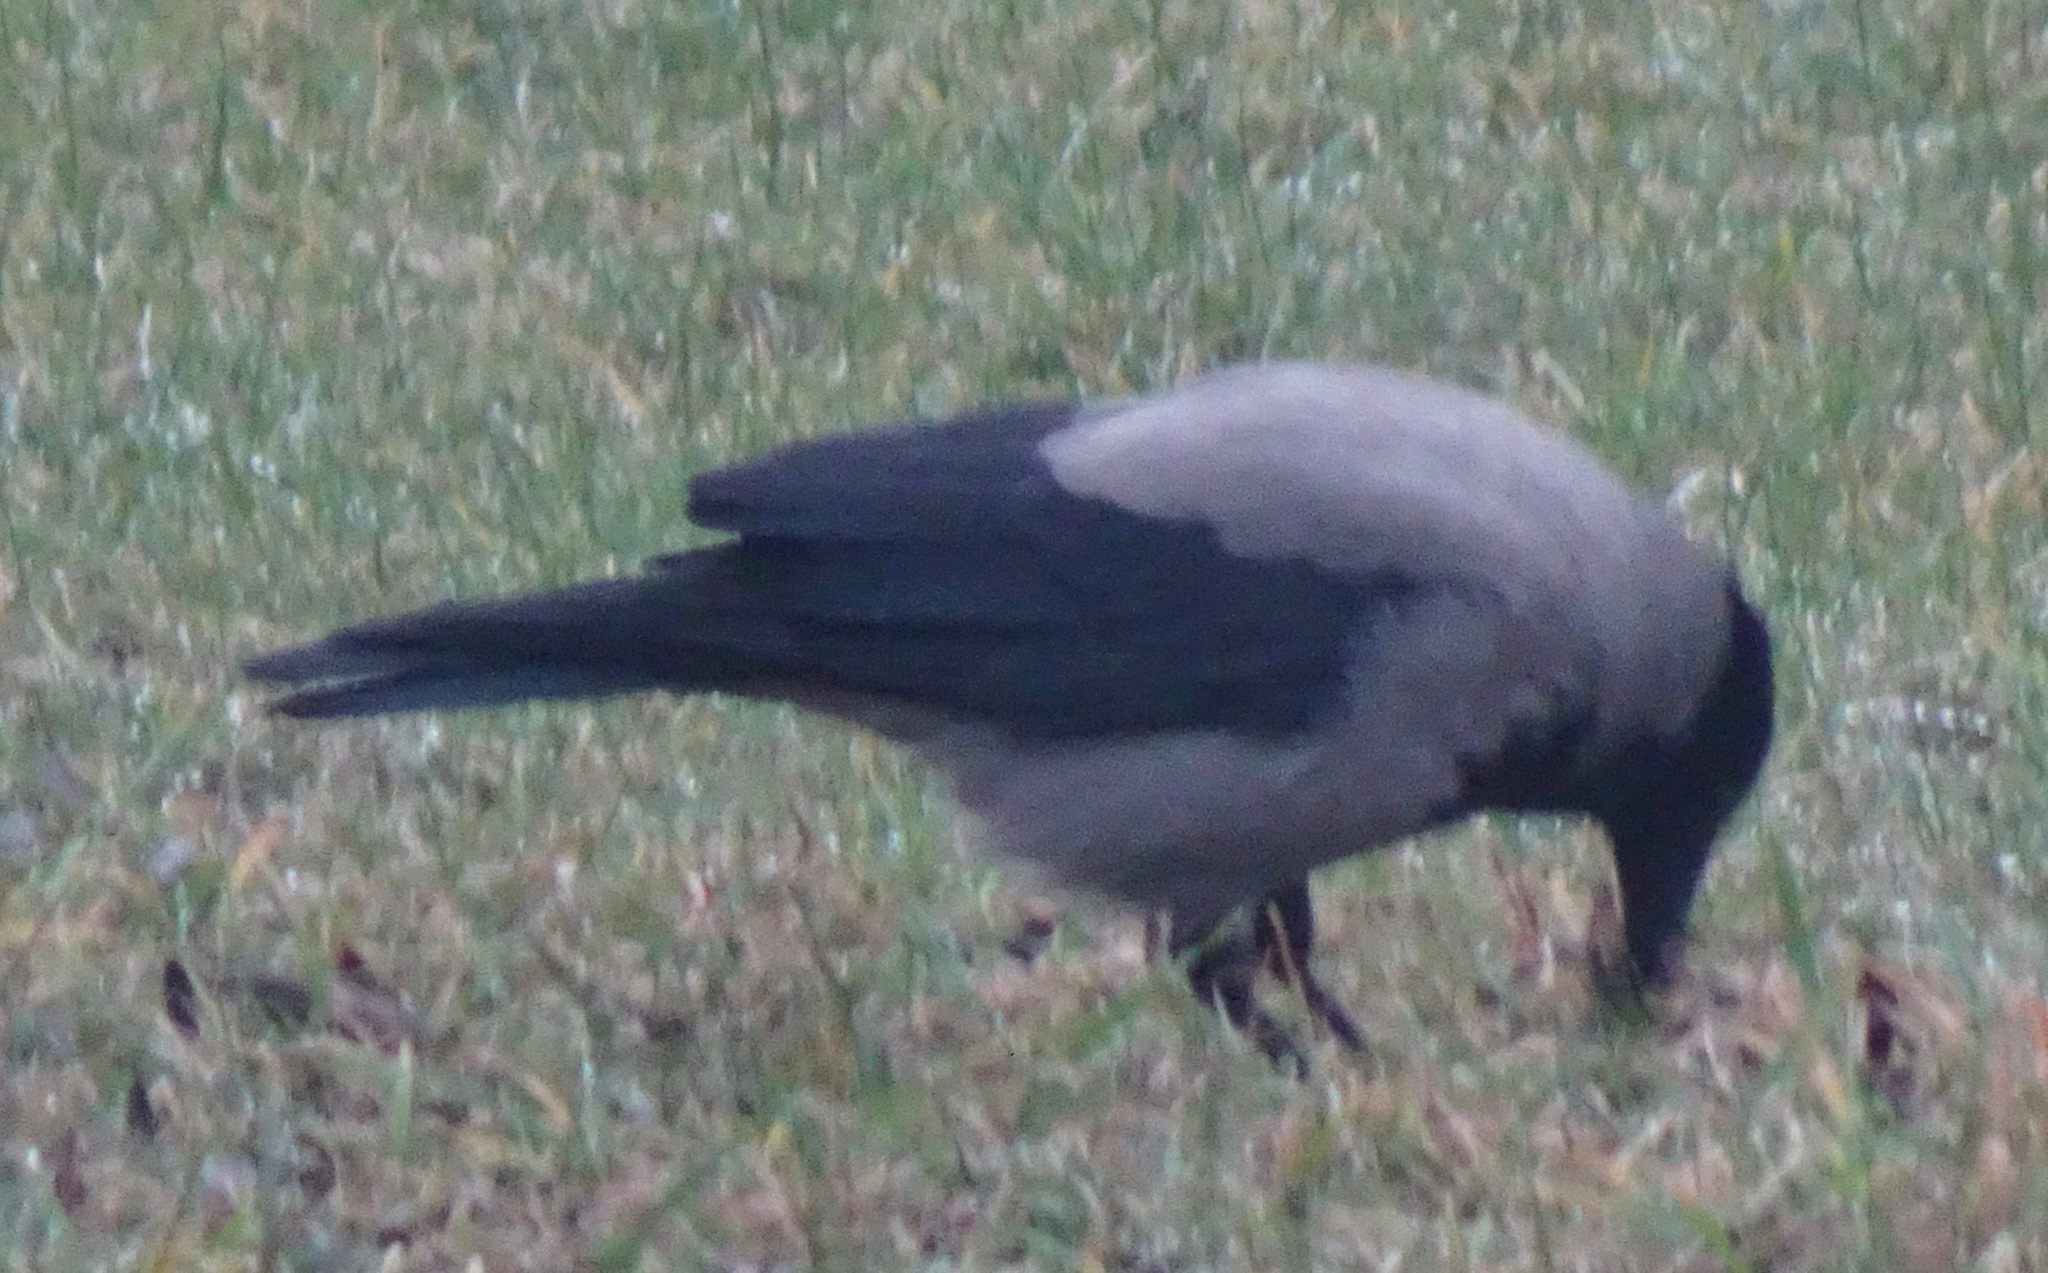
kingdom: Animalia
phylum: Chordata
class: Aves
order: Passeriformes
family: Corvidae
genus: Corvus
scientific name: Corvus cornix
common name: Hooded crow
